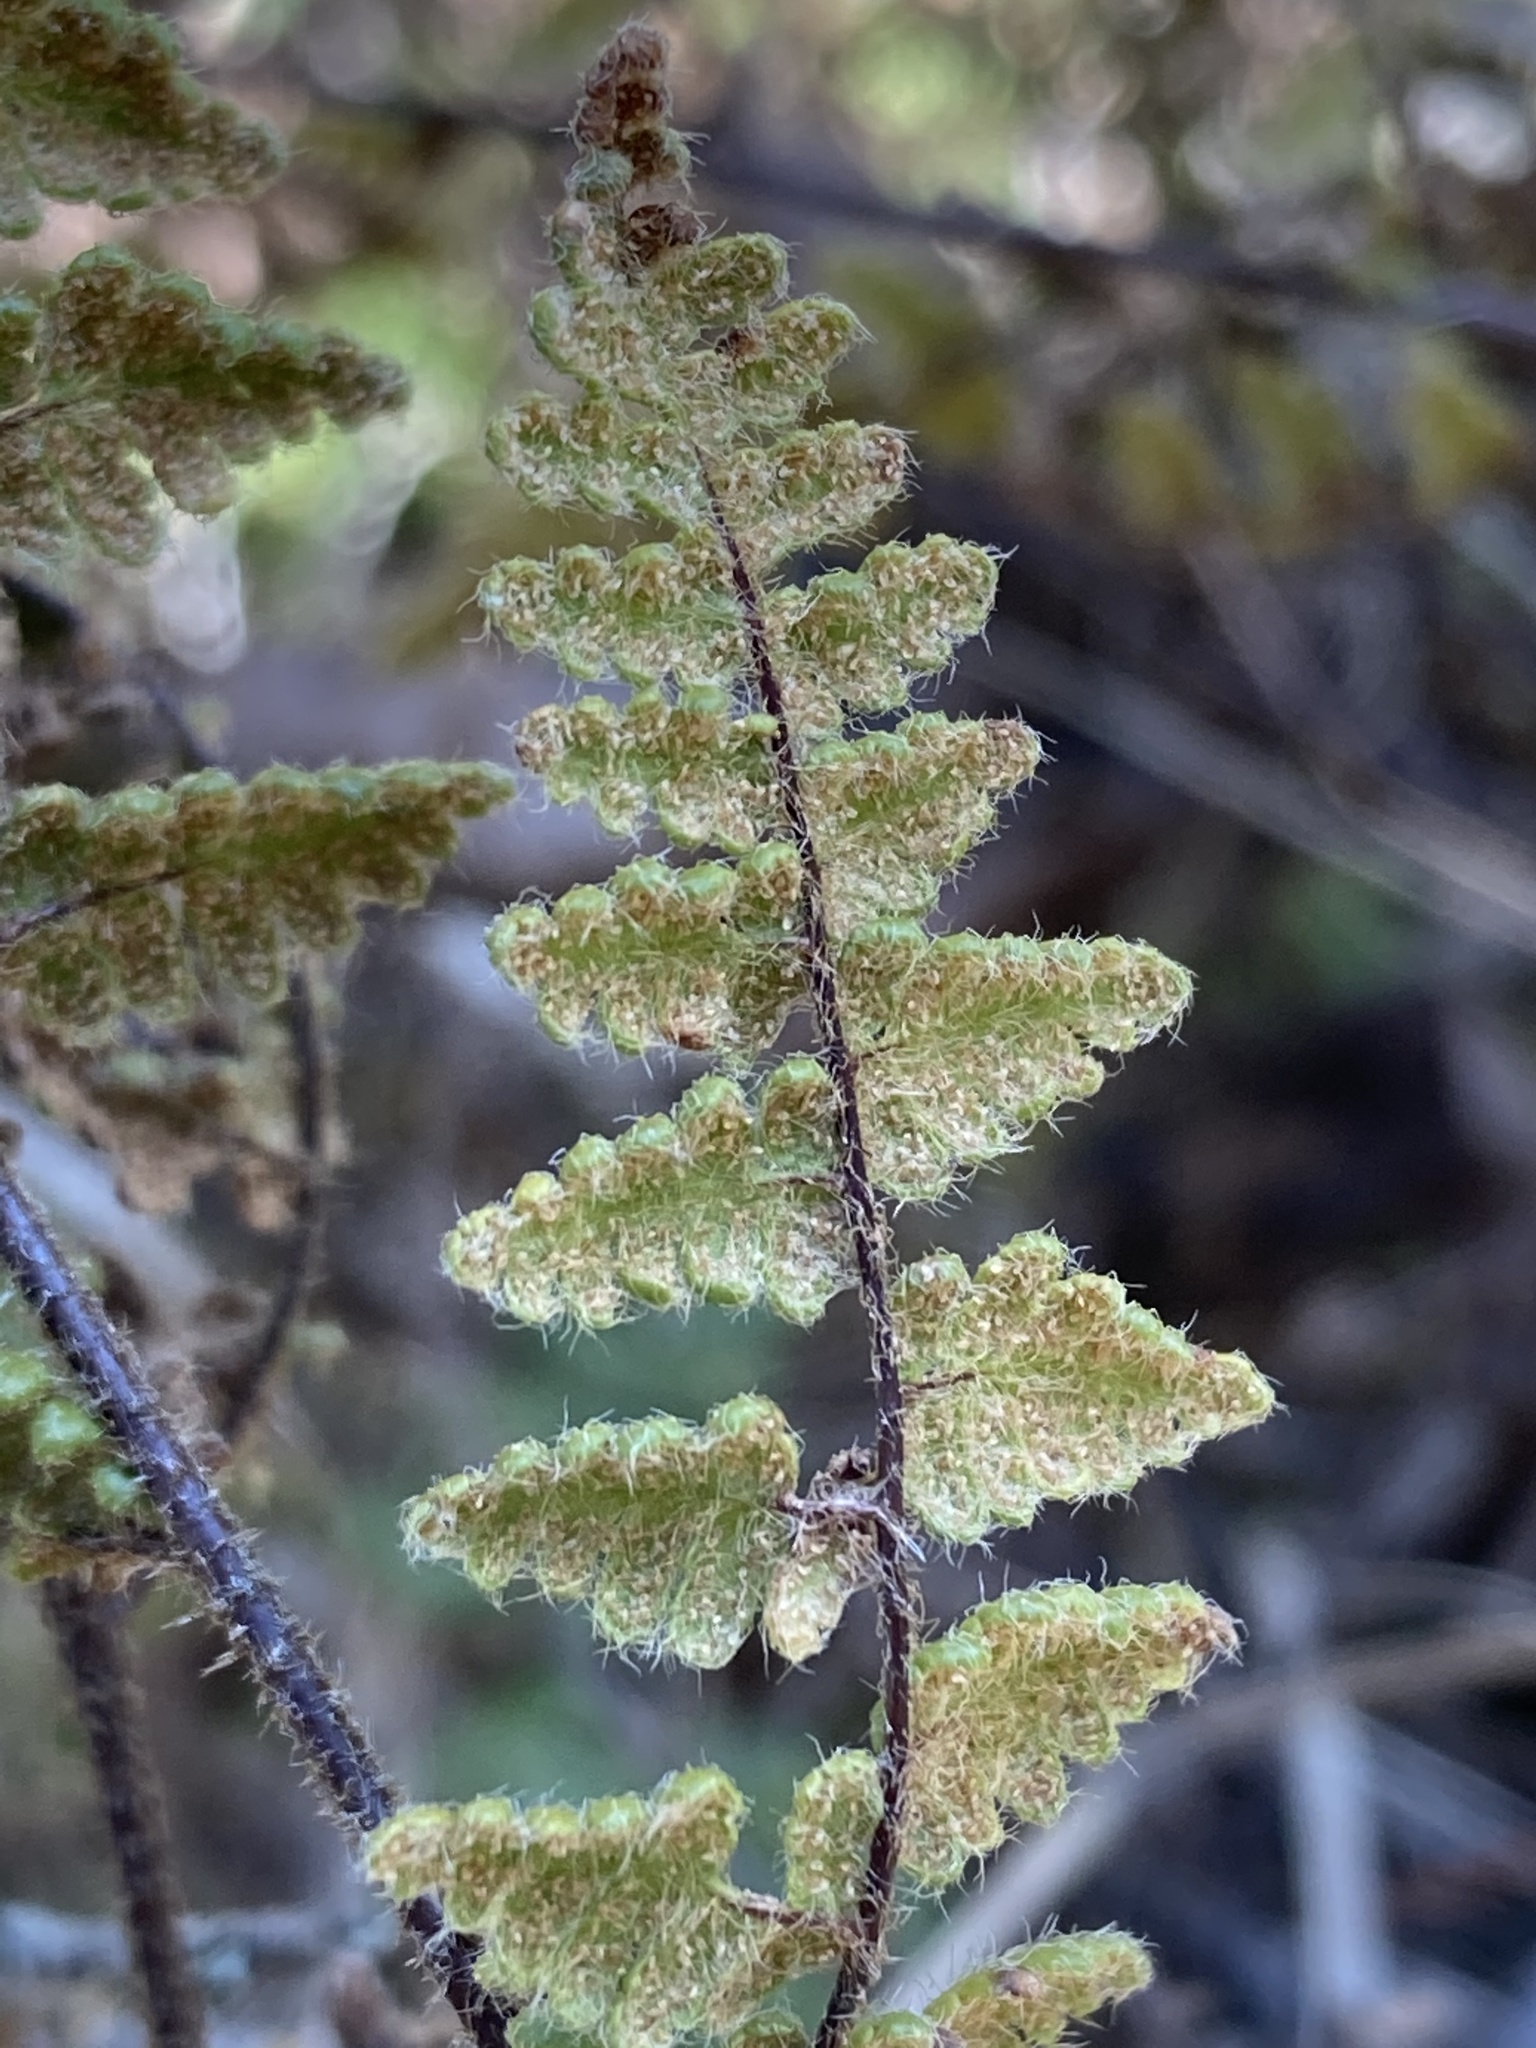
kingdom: Plantae
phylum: Tracheophyta
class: Polypodiopsida
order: Polypodiales
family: Pteridaceae
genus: Myriopteris
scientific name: Myriopteris lanosa
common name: Hairy lip fern
